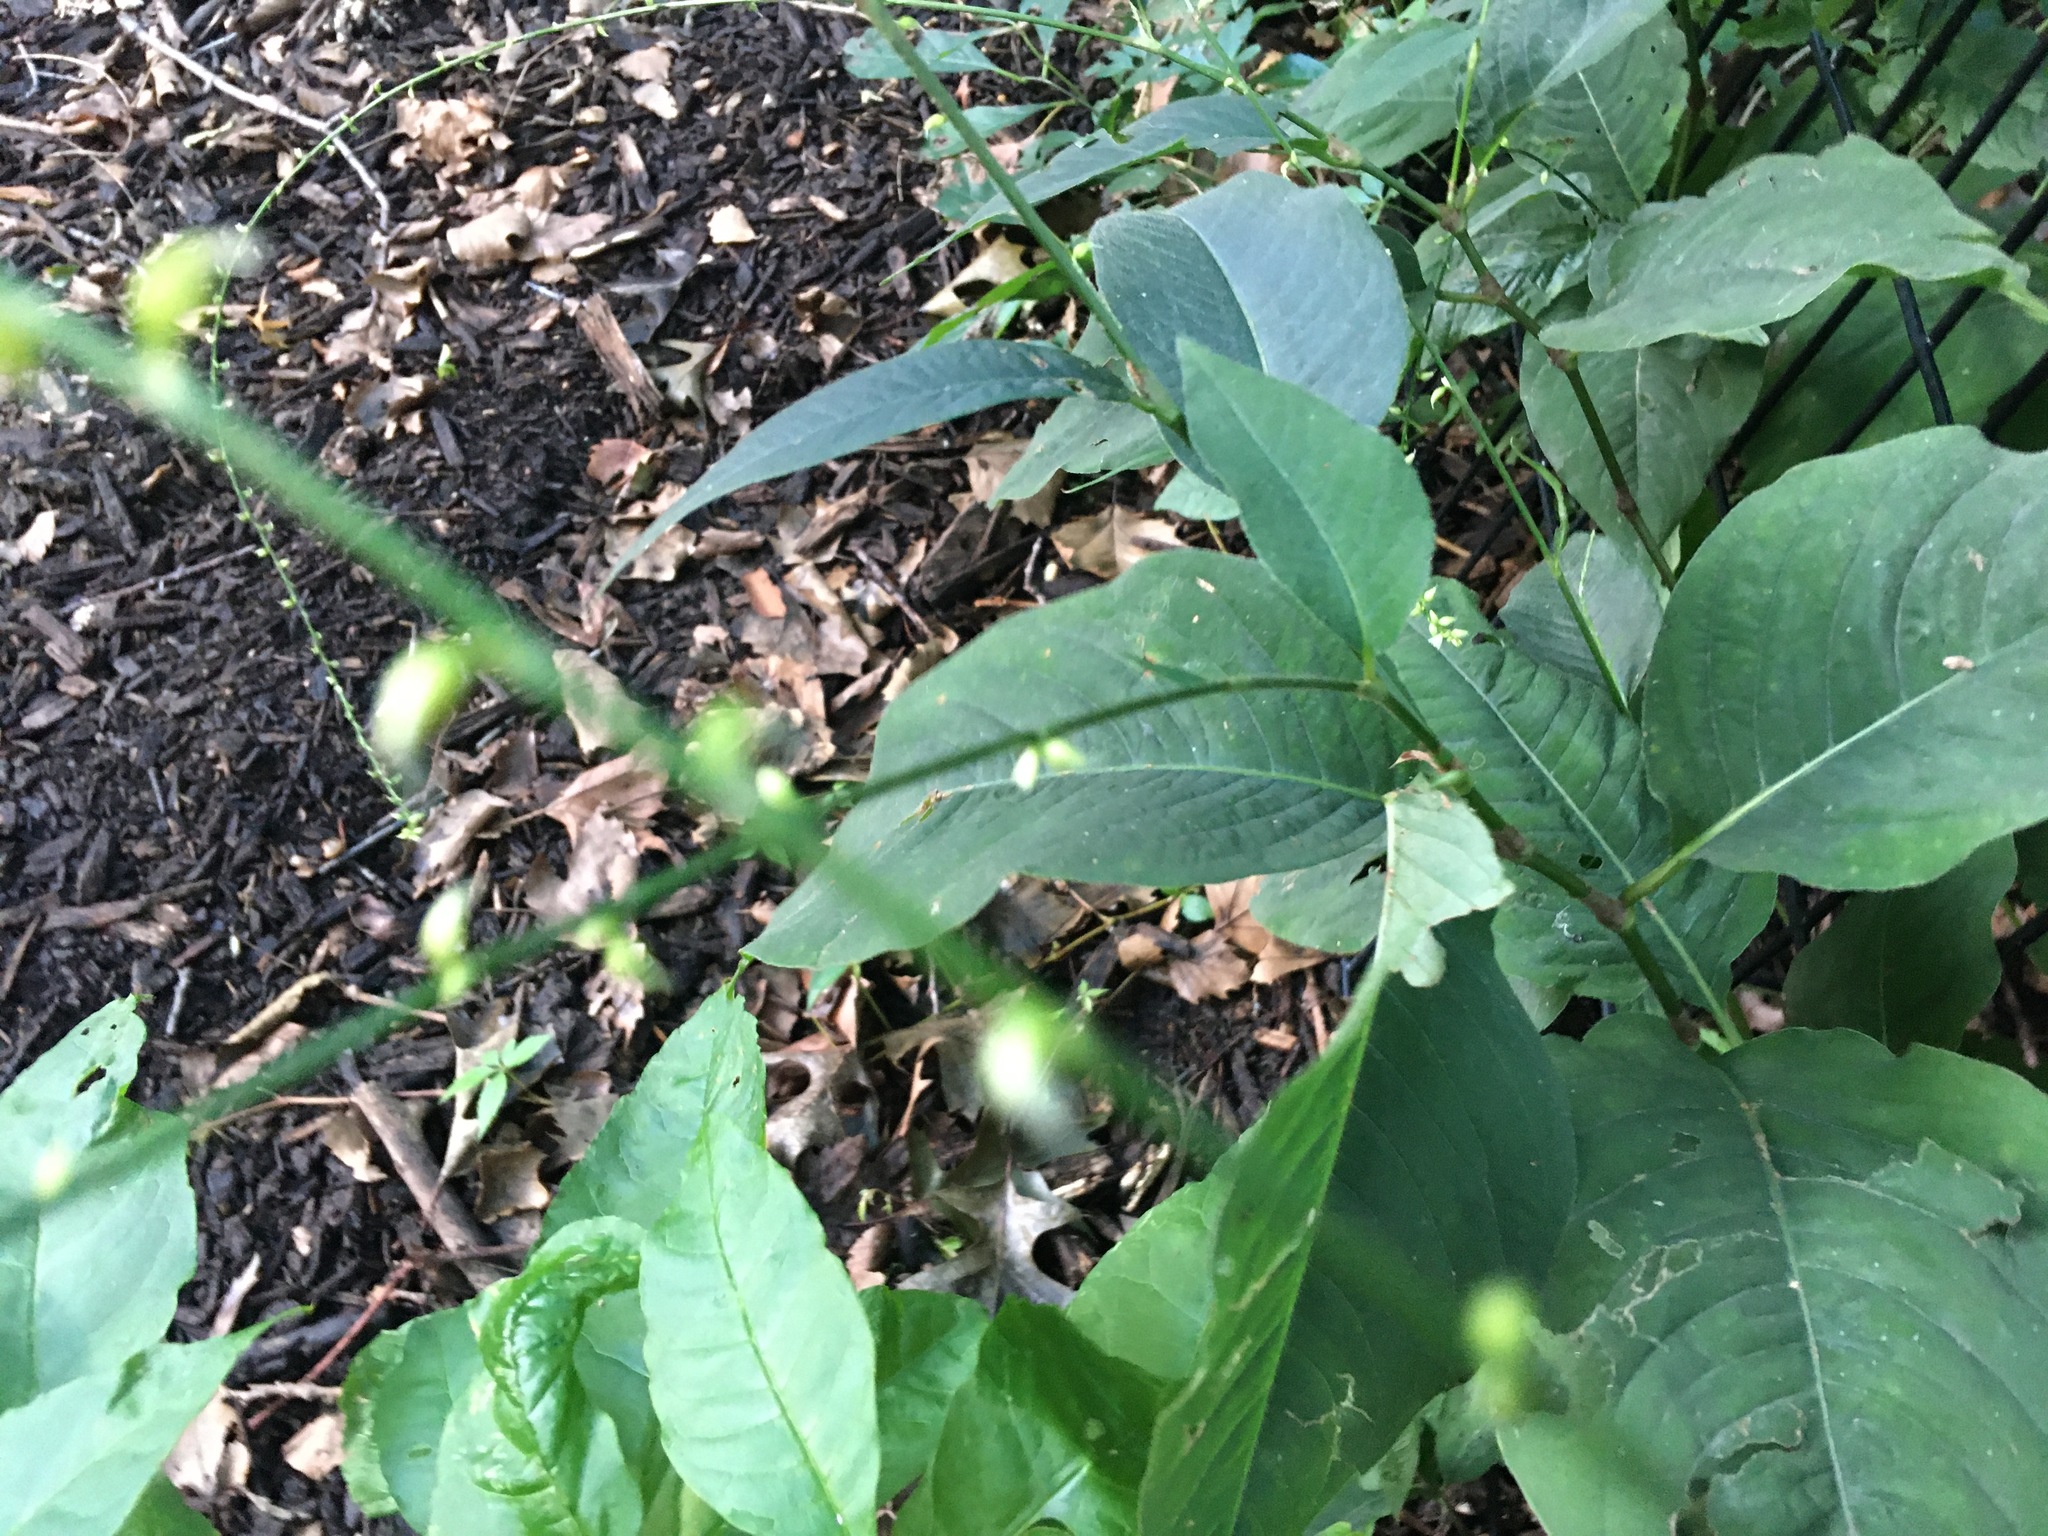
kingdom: Plantae
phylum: Tracheophyta
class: Magnoliopsida
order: Caryophyllales
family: Polygonaceae
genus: Persicaria
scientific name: Persicaria virginiana
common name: Jumpseed
